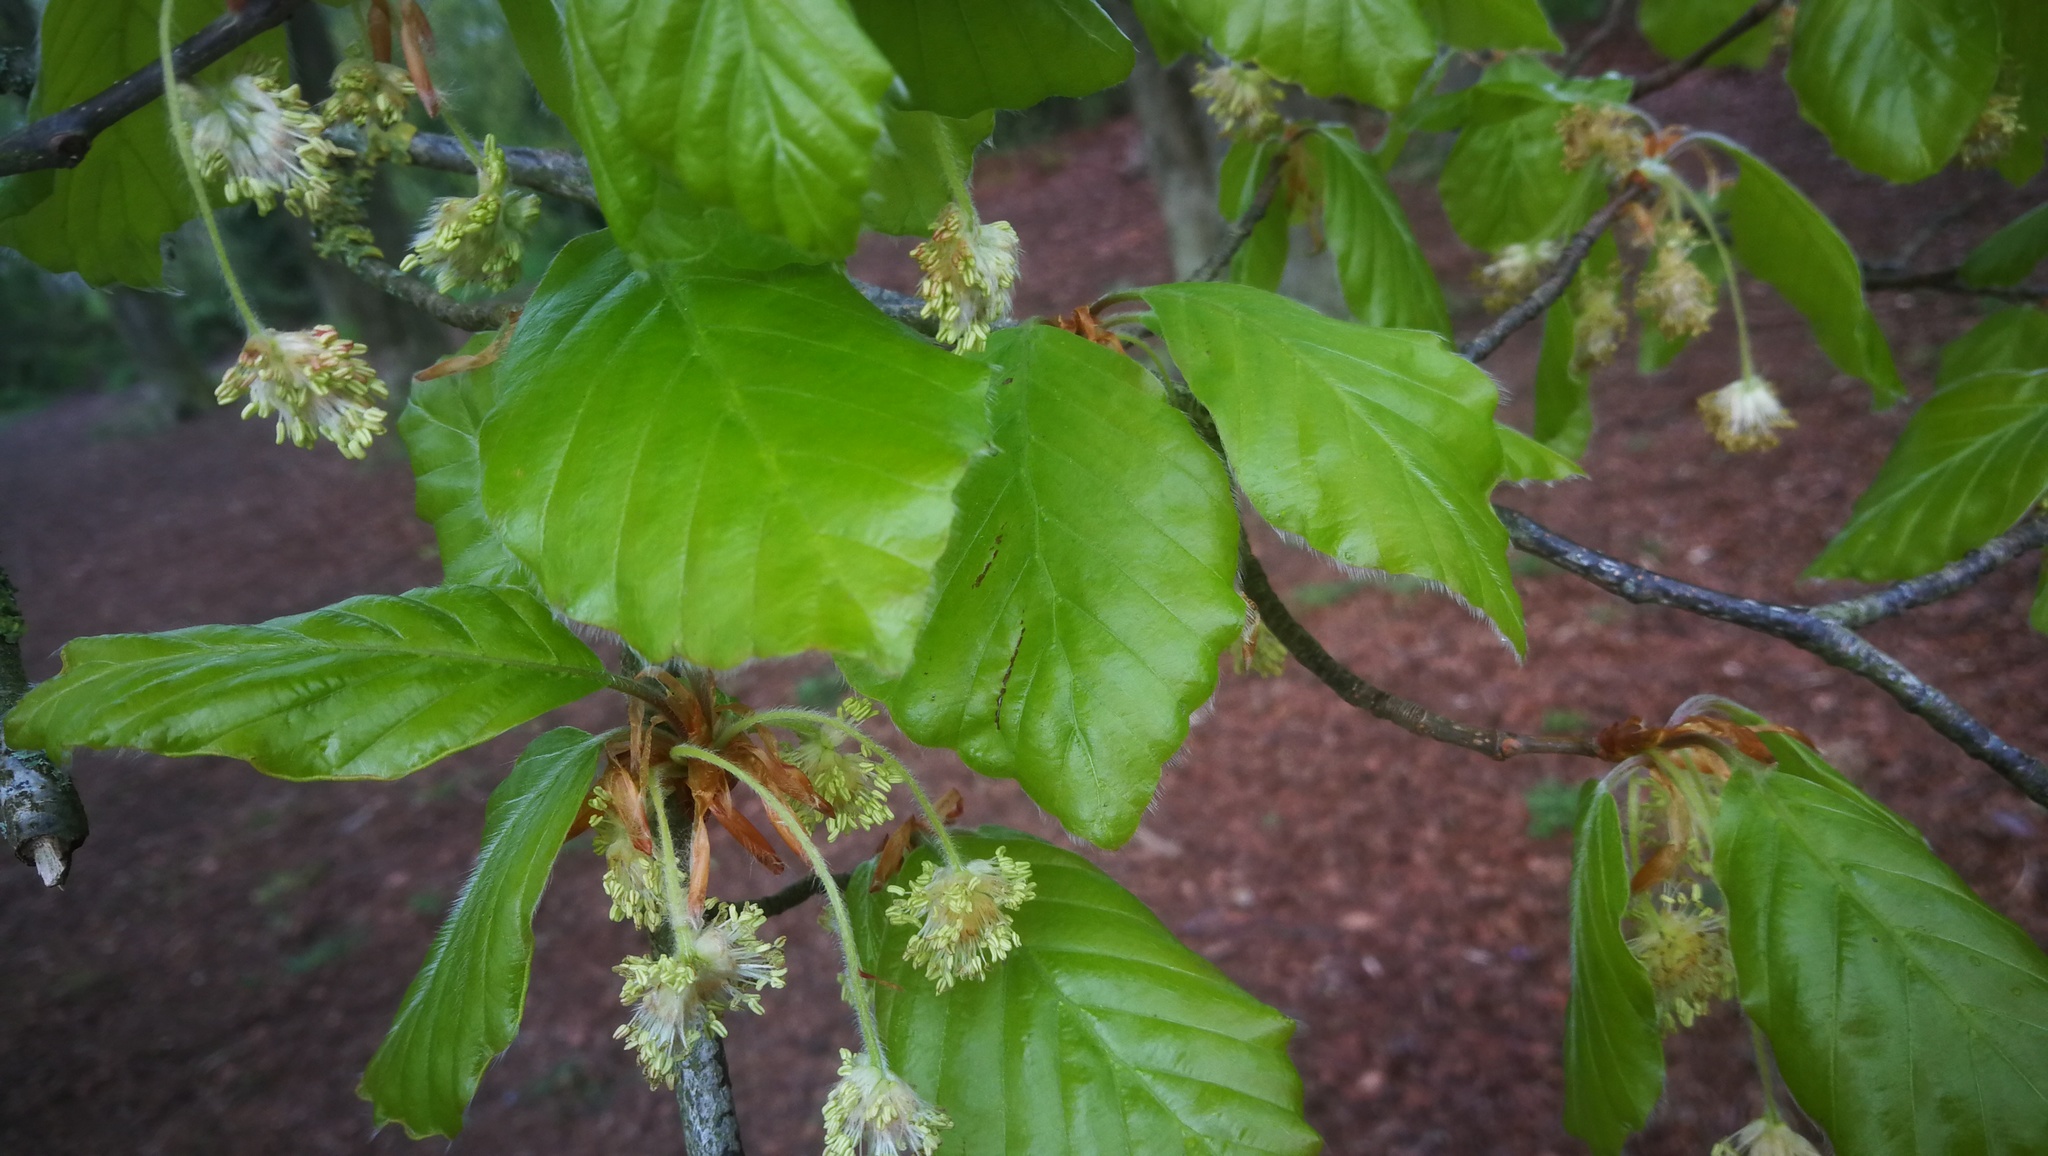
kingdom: Plantae
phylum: Tracheophyta
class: Magnoliopsida
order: Fagales
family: Fagaceae
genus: Fagus
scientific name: Fagus sylvatica
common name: Beech
